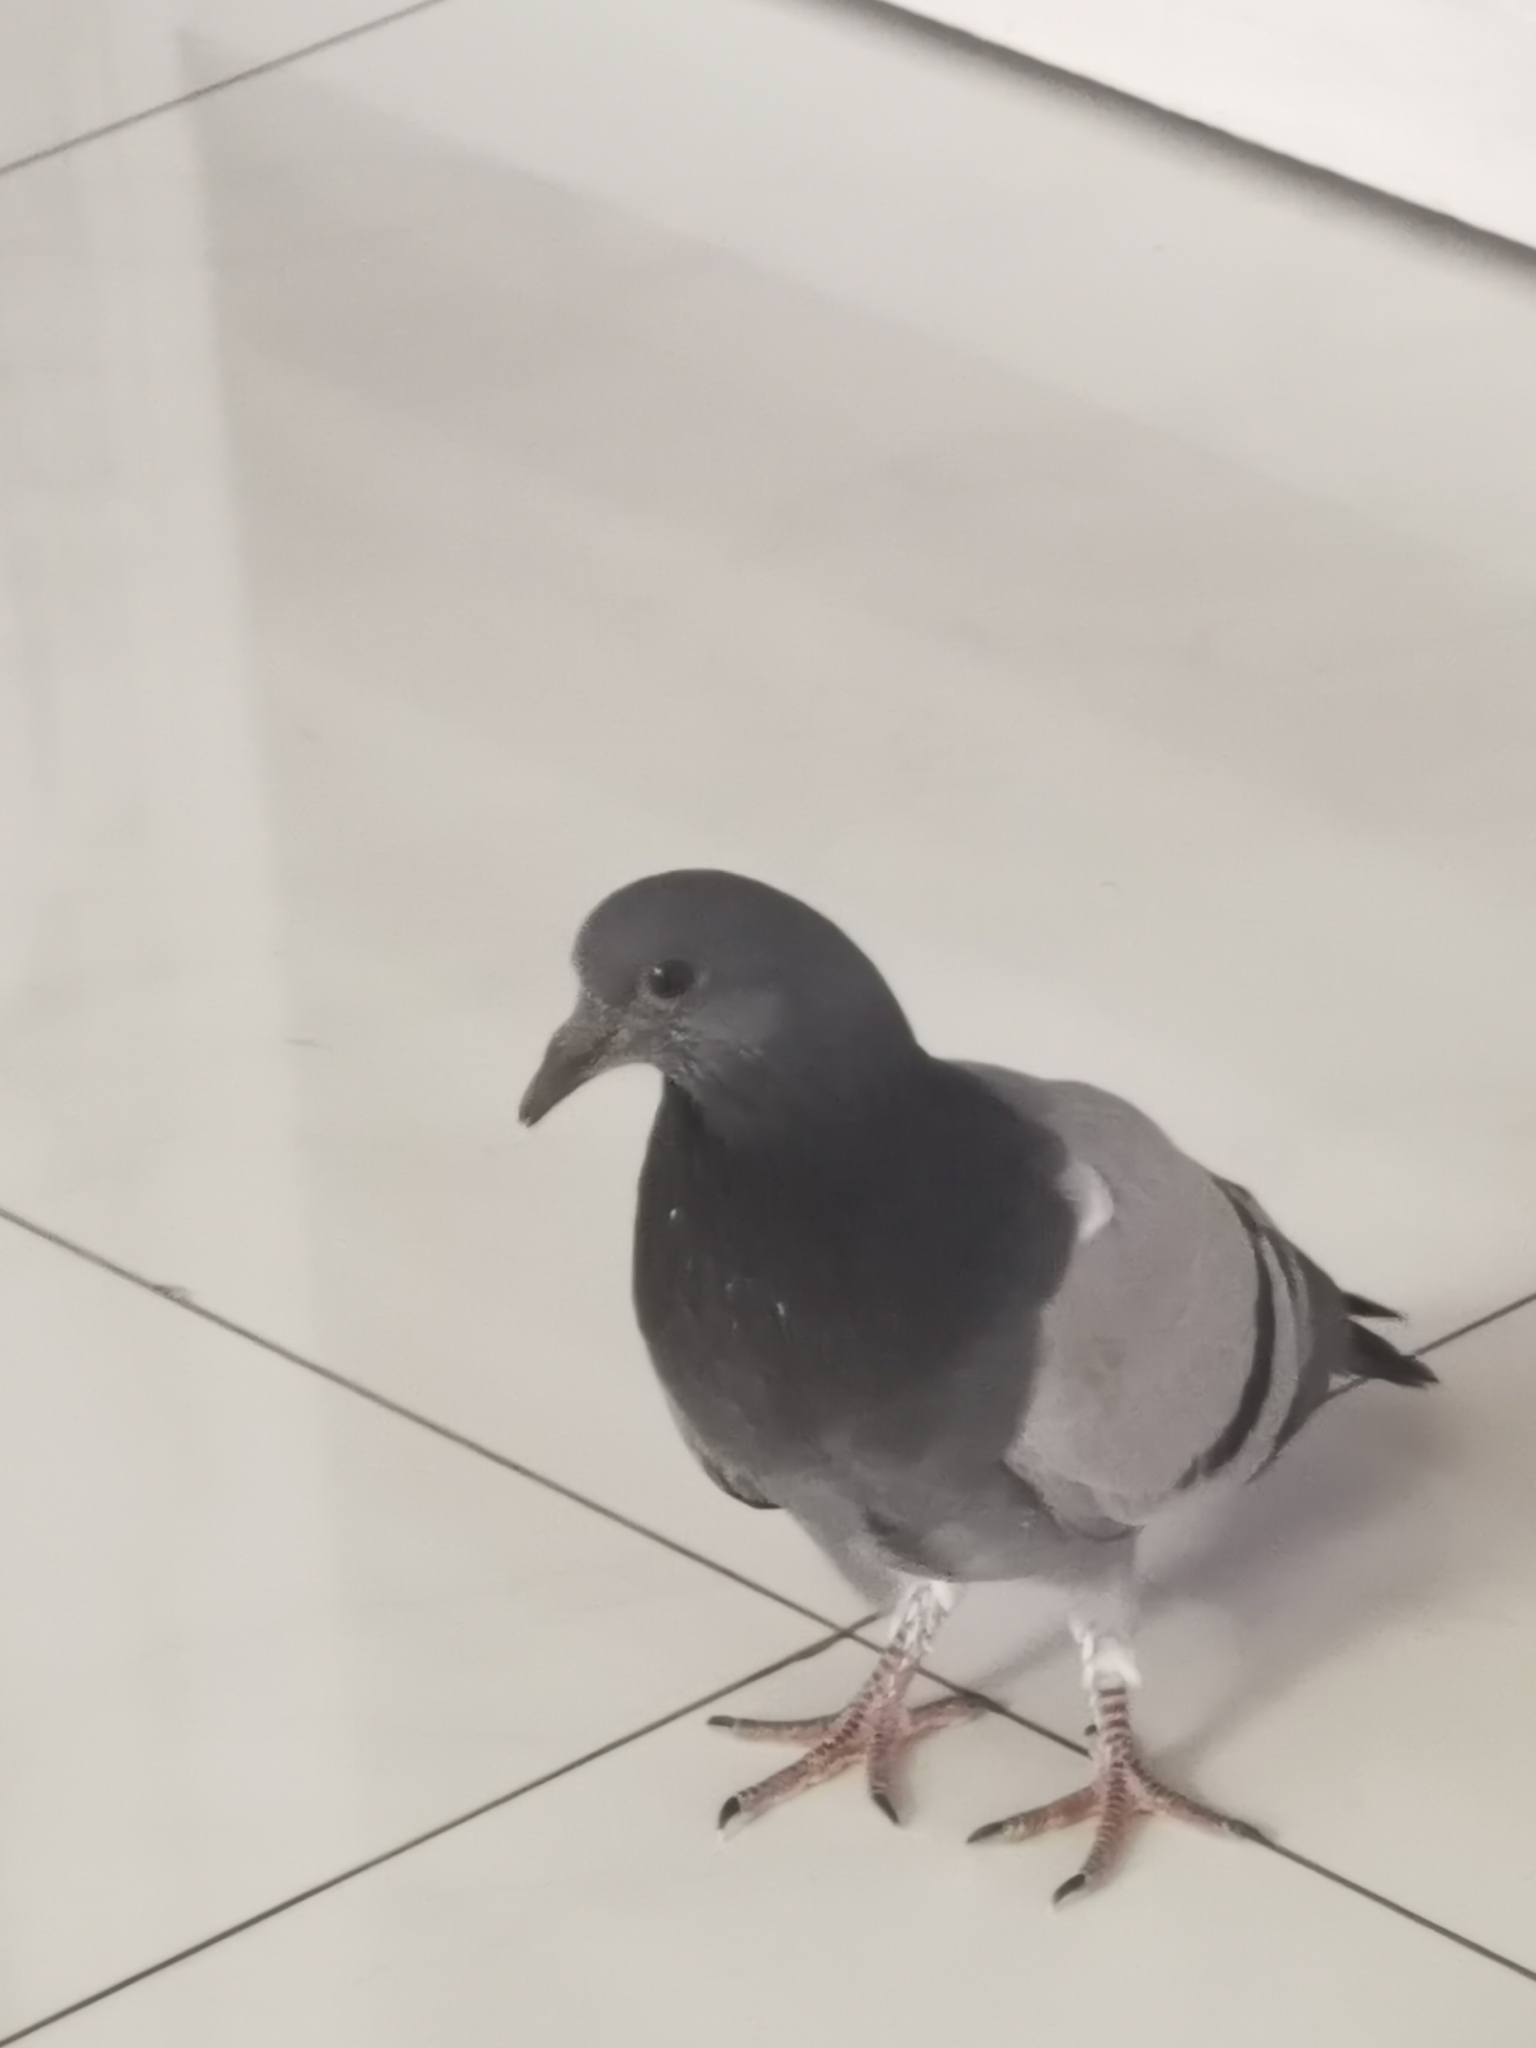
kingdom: Animalia
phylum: Chordata
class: Aves
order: Columbiformes
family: Columbidae
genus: Columba
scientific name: Columba livia
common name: Rock pigeon
